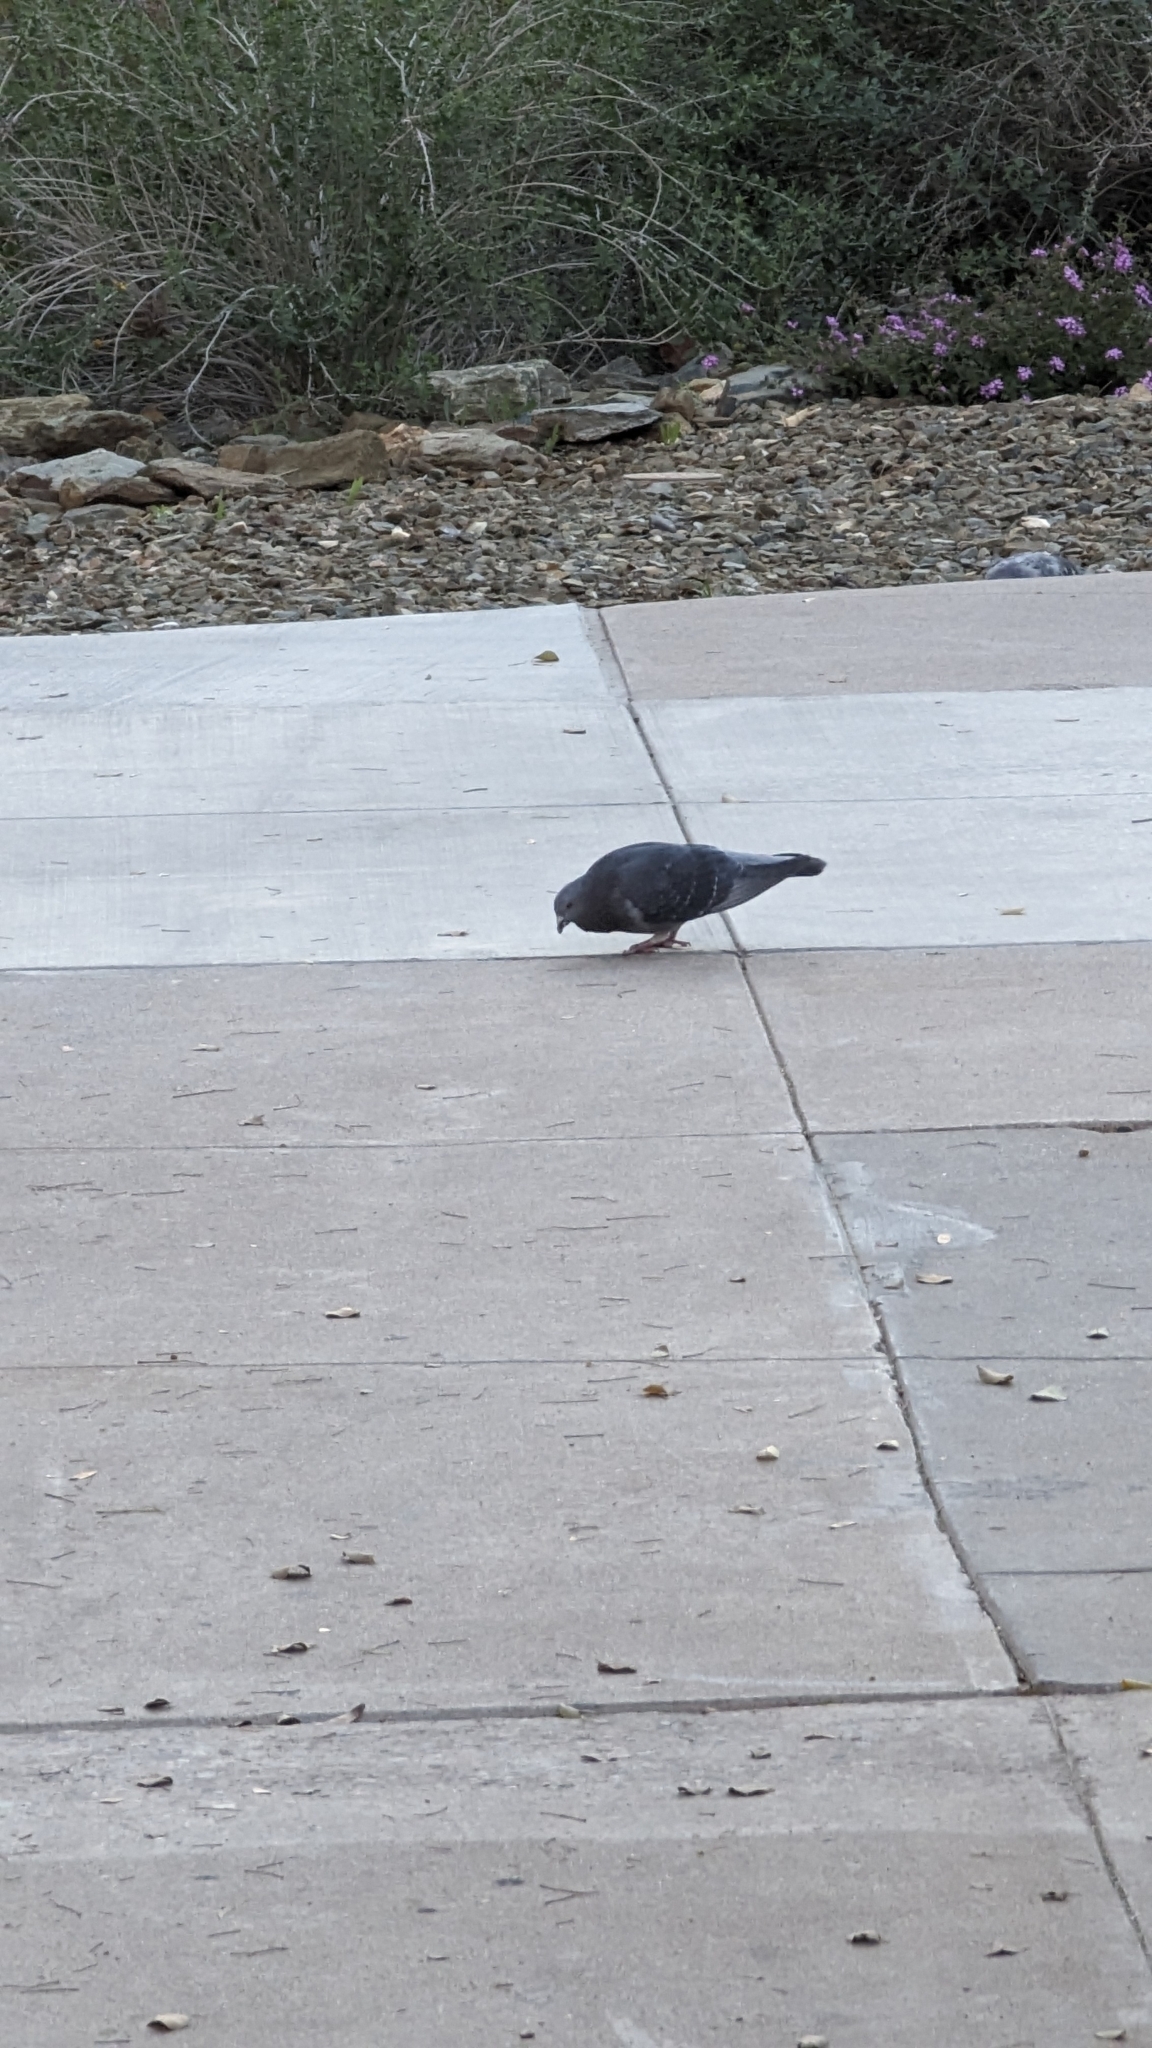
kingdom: Animalia
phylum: Chordata
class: Aves
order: Columbiformes
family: Columbidae
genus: Columba
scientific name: Columba livia
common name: Rock pigeon
